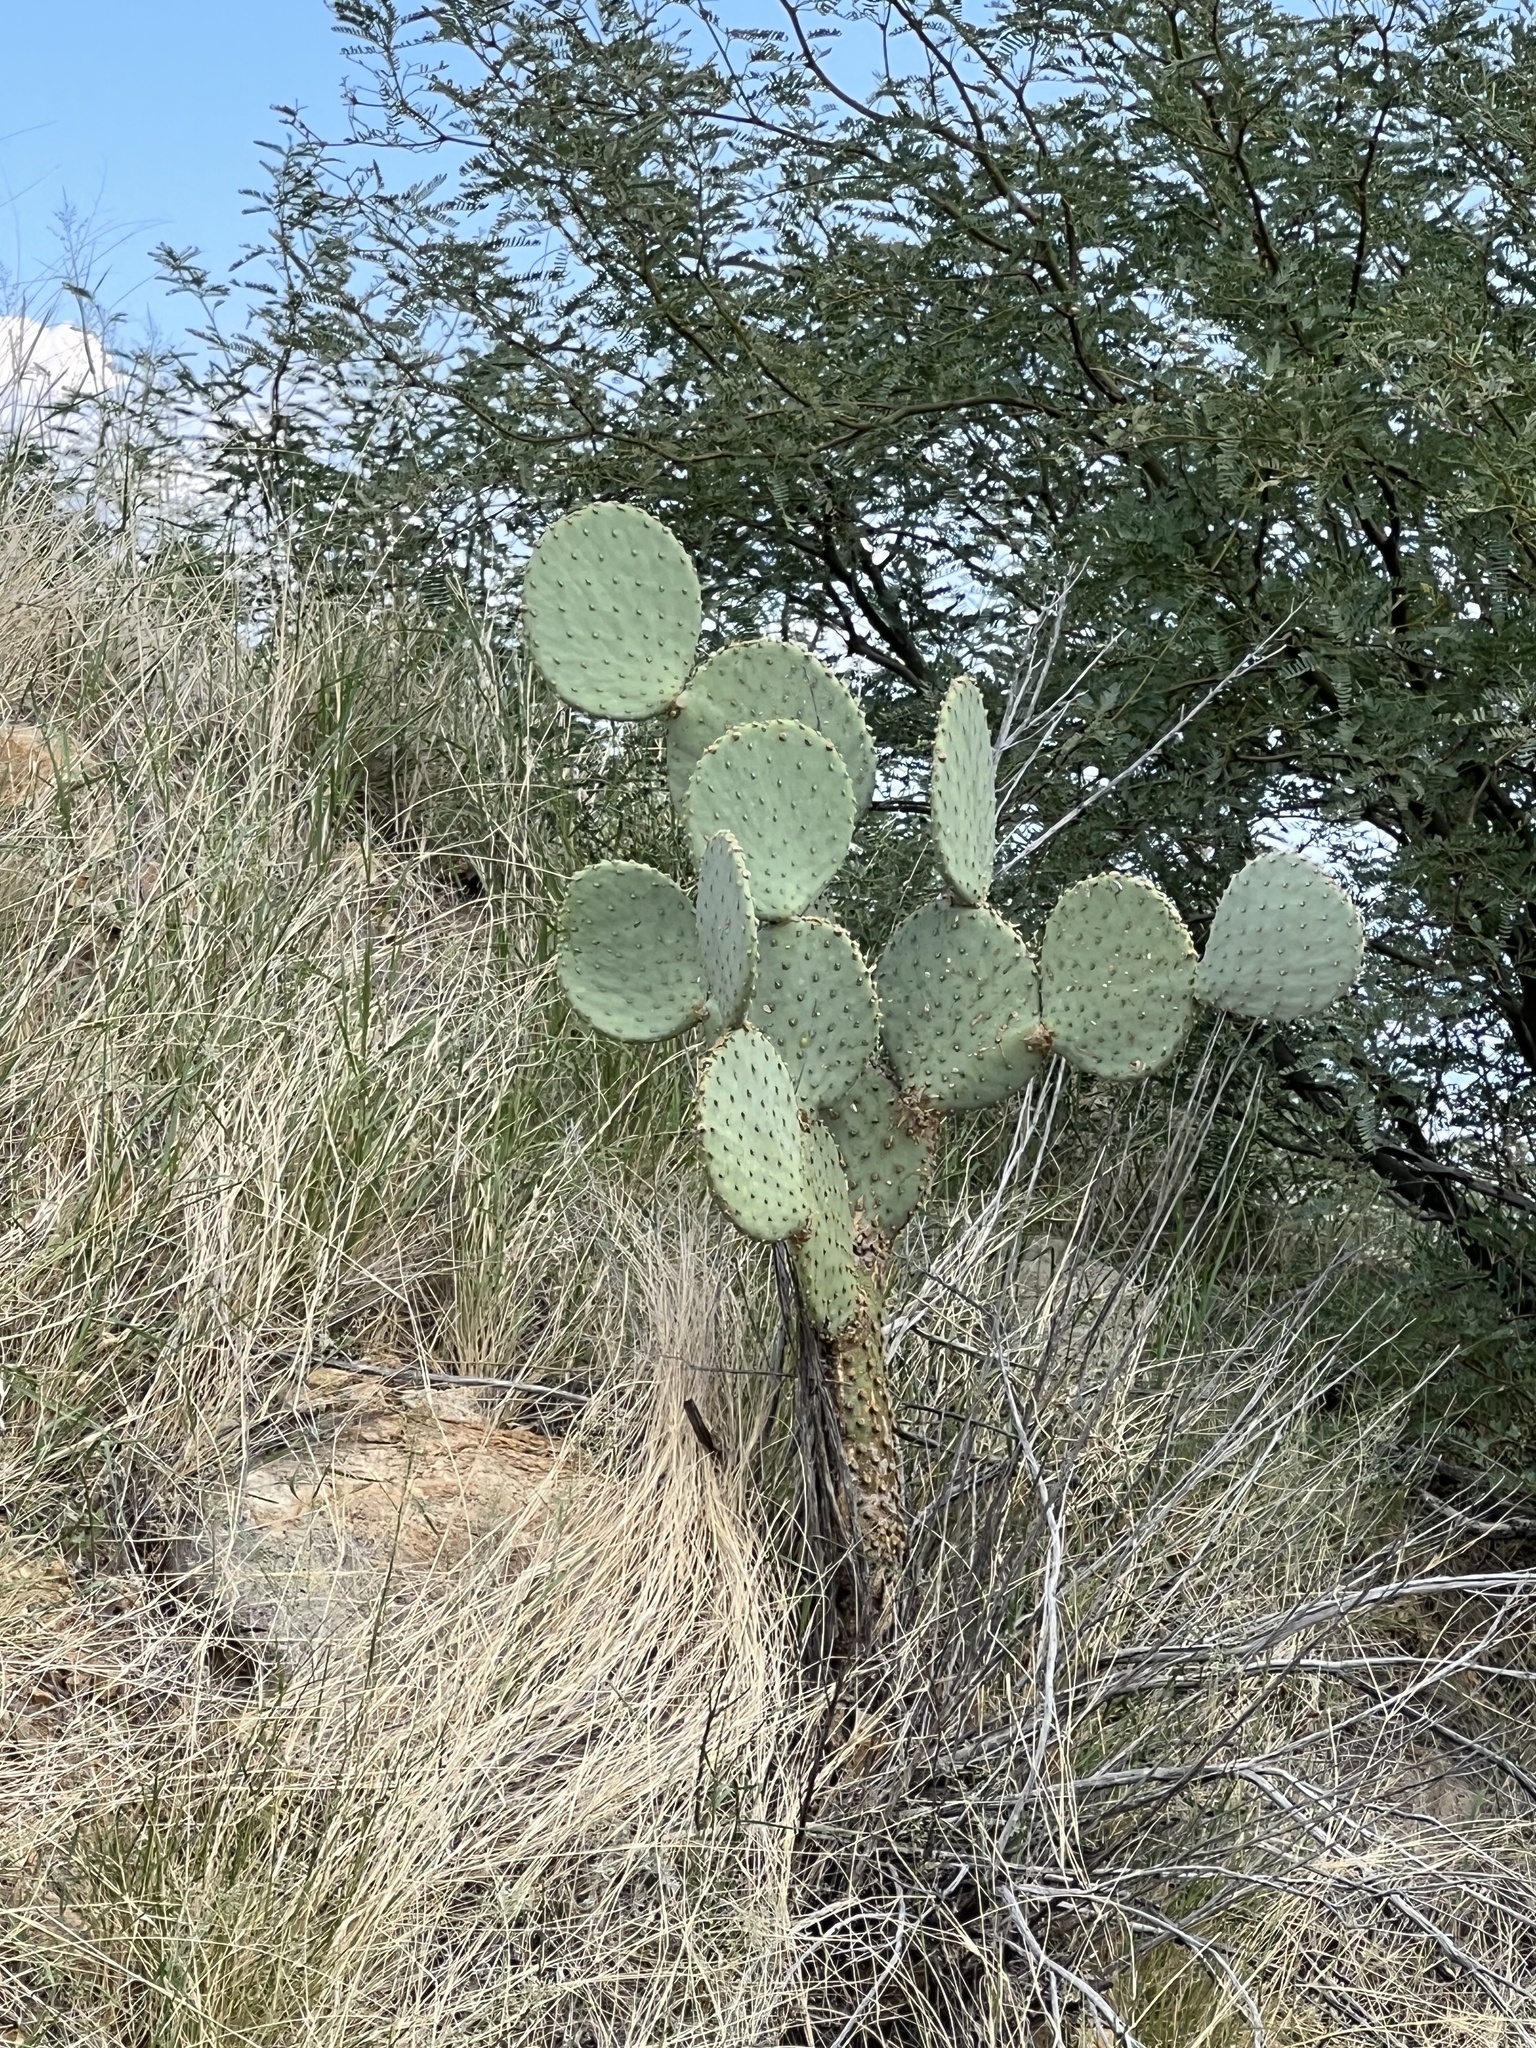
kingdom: Plantae
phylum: Tracheophyta
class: Magnoliopsida
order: Caryophyllales
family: Cactaceae
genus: Opuntia
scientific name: Opuntia chlorotica
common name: Dollar-joint prickly-pear
